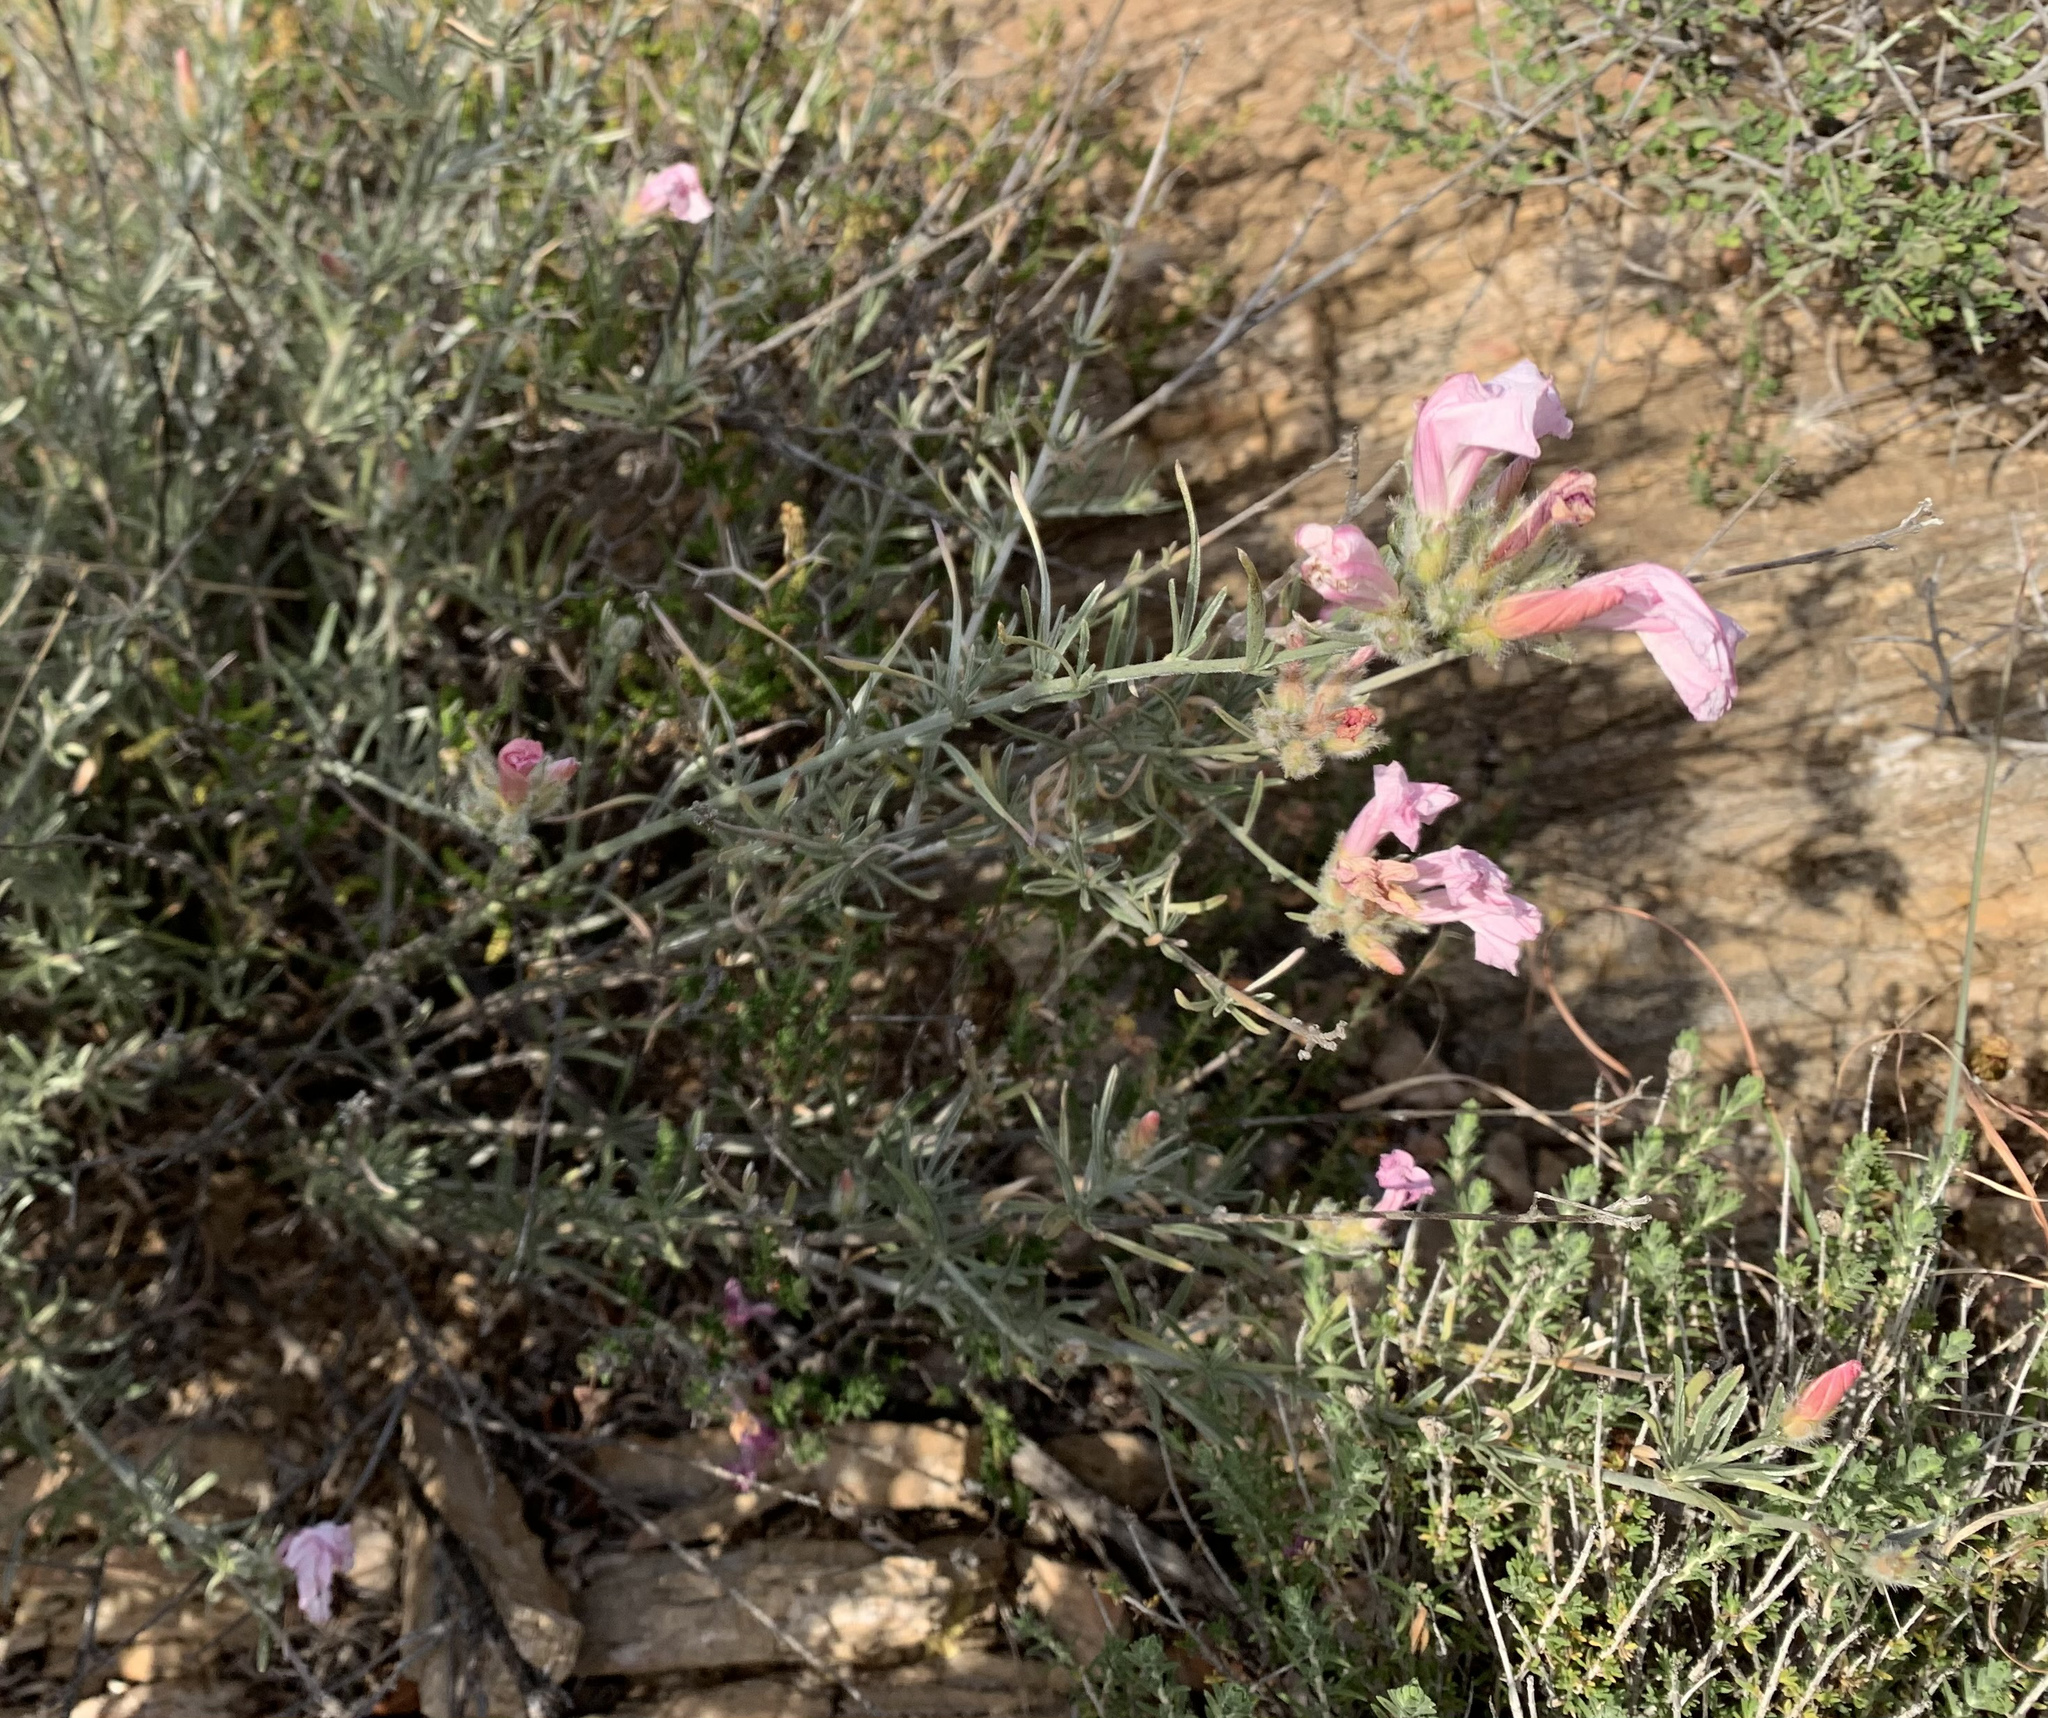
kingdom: Plantae
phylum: Tracheophyta
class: Magnoliopsida
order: Solanales
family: Convolvulaceae
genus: Convolvulus
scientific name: Convolvulus oleifolius
